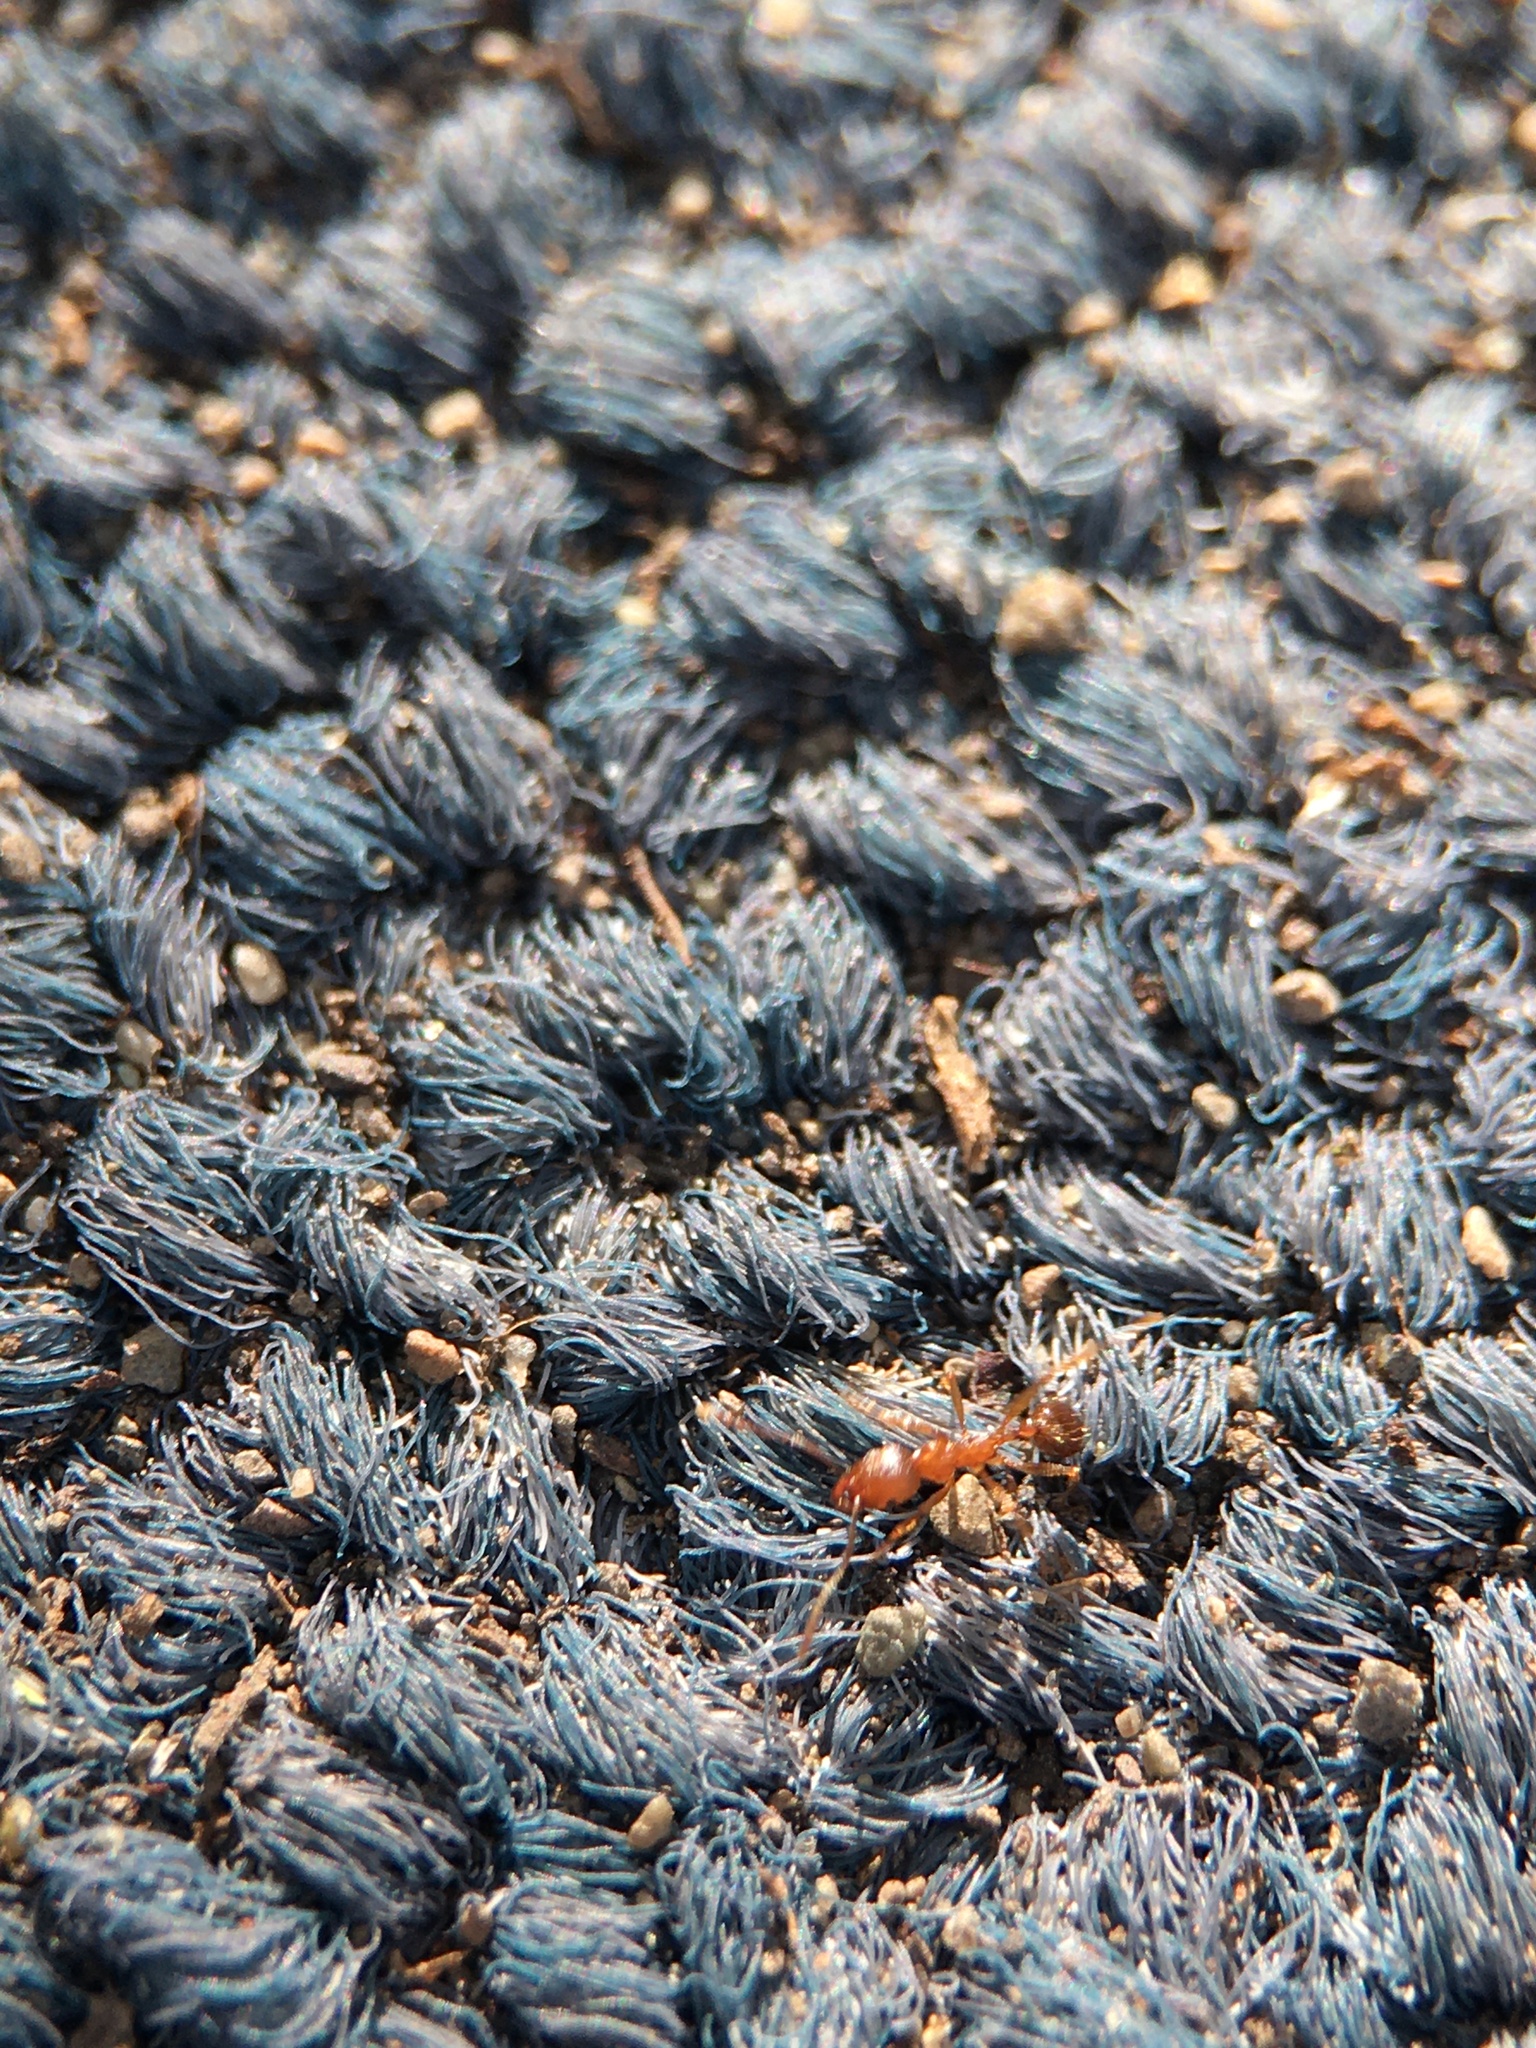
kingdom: Animalia
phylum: Arthropoda
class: Insecta
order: Hymenoptera
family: Formicidae
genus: Aphaenogaster
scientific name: Aphaenogaster occidentalis
